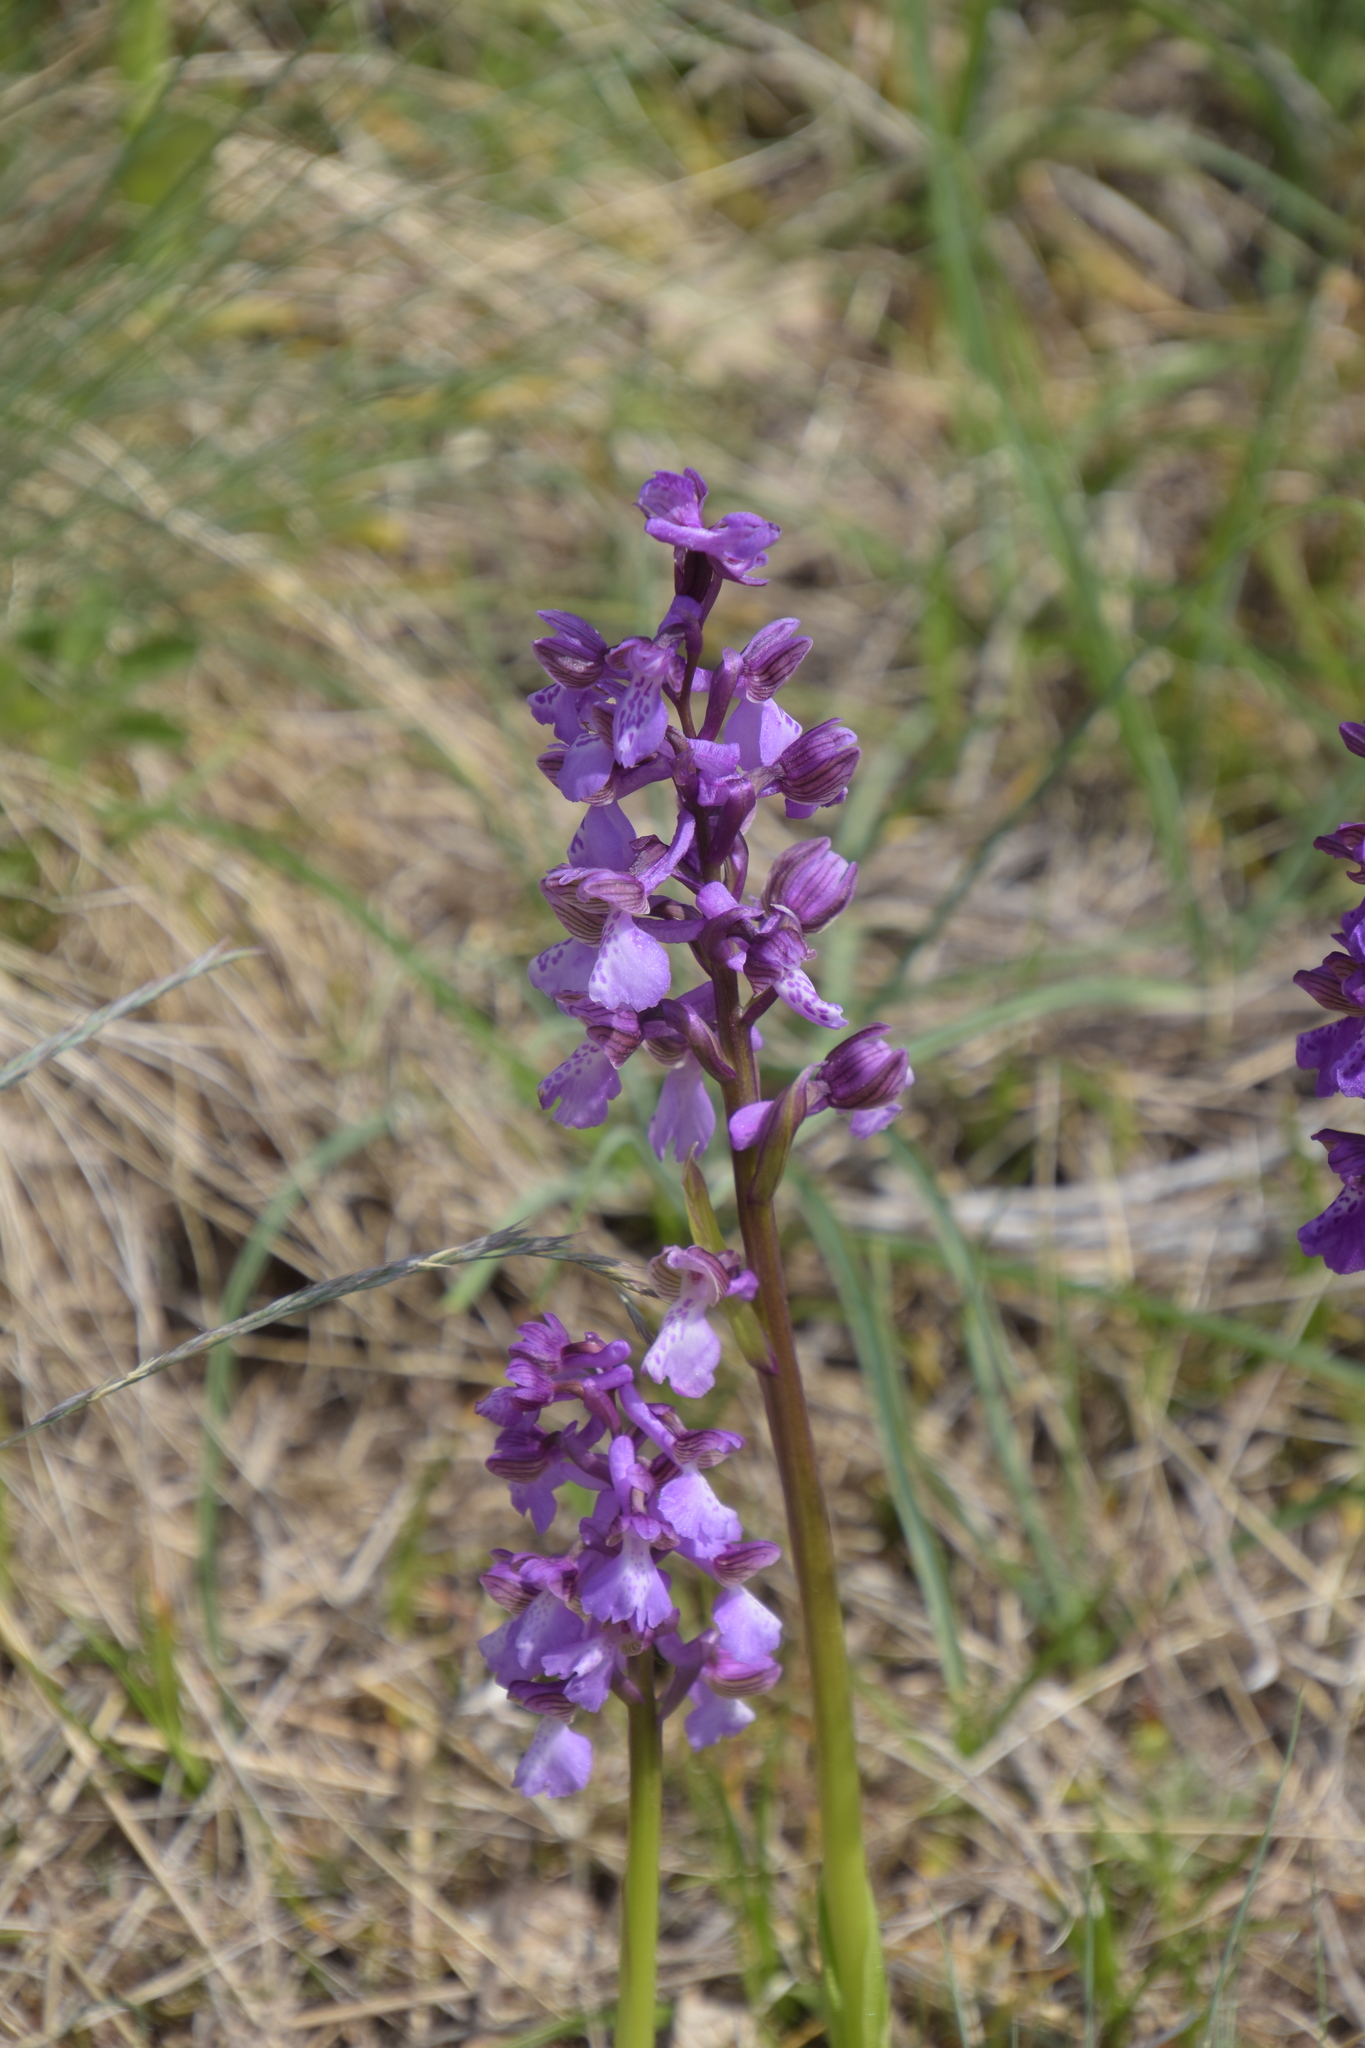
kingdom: Plantae
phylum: Tracheophyta
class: Liliopsida
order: Asparagales
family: Orchidaceae
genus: Anacamptis
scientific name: Anacamptis morio
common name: Green-winged orchid
